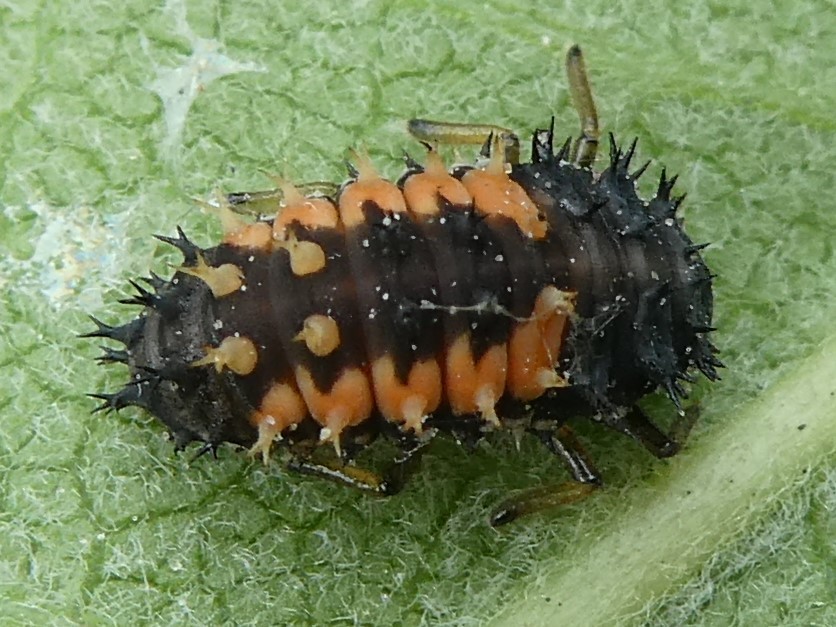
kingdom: Animalia
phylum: Arthropoda
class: Insecta
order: Coleoptera
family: Coccinellidae
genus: Harmonia
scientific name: Harmonia axyridis
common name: Harlequin ladybird
